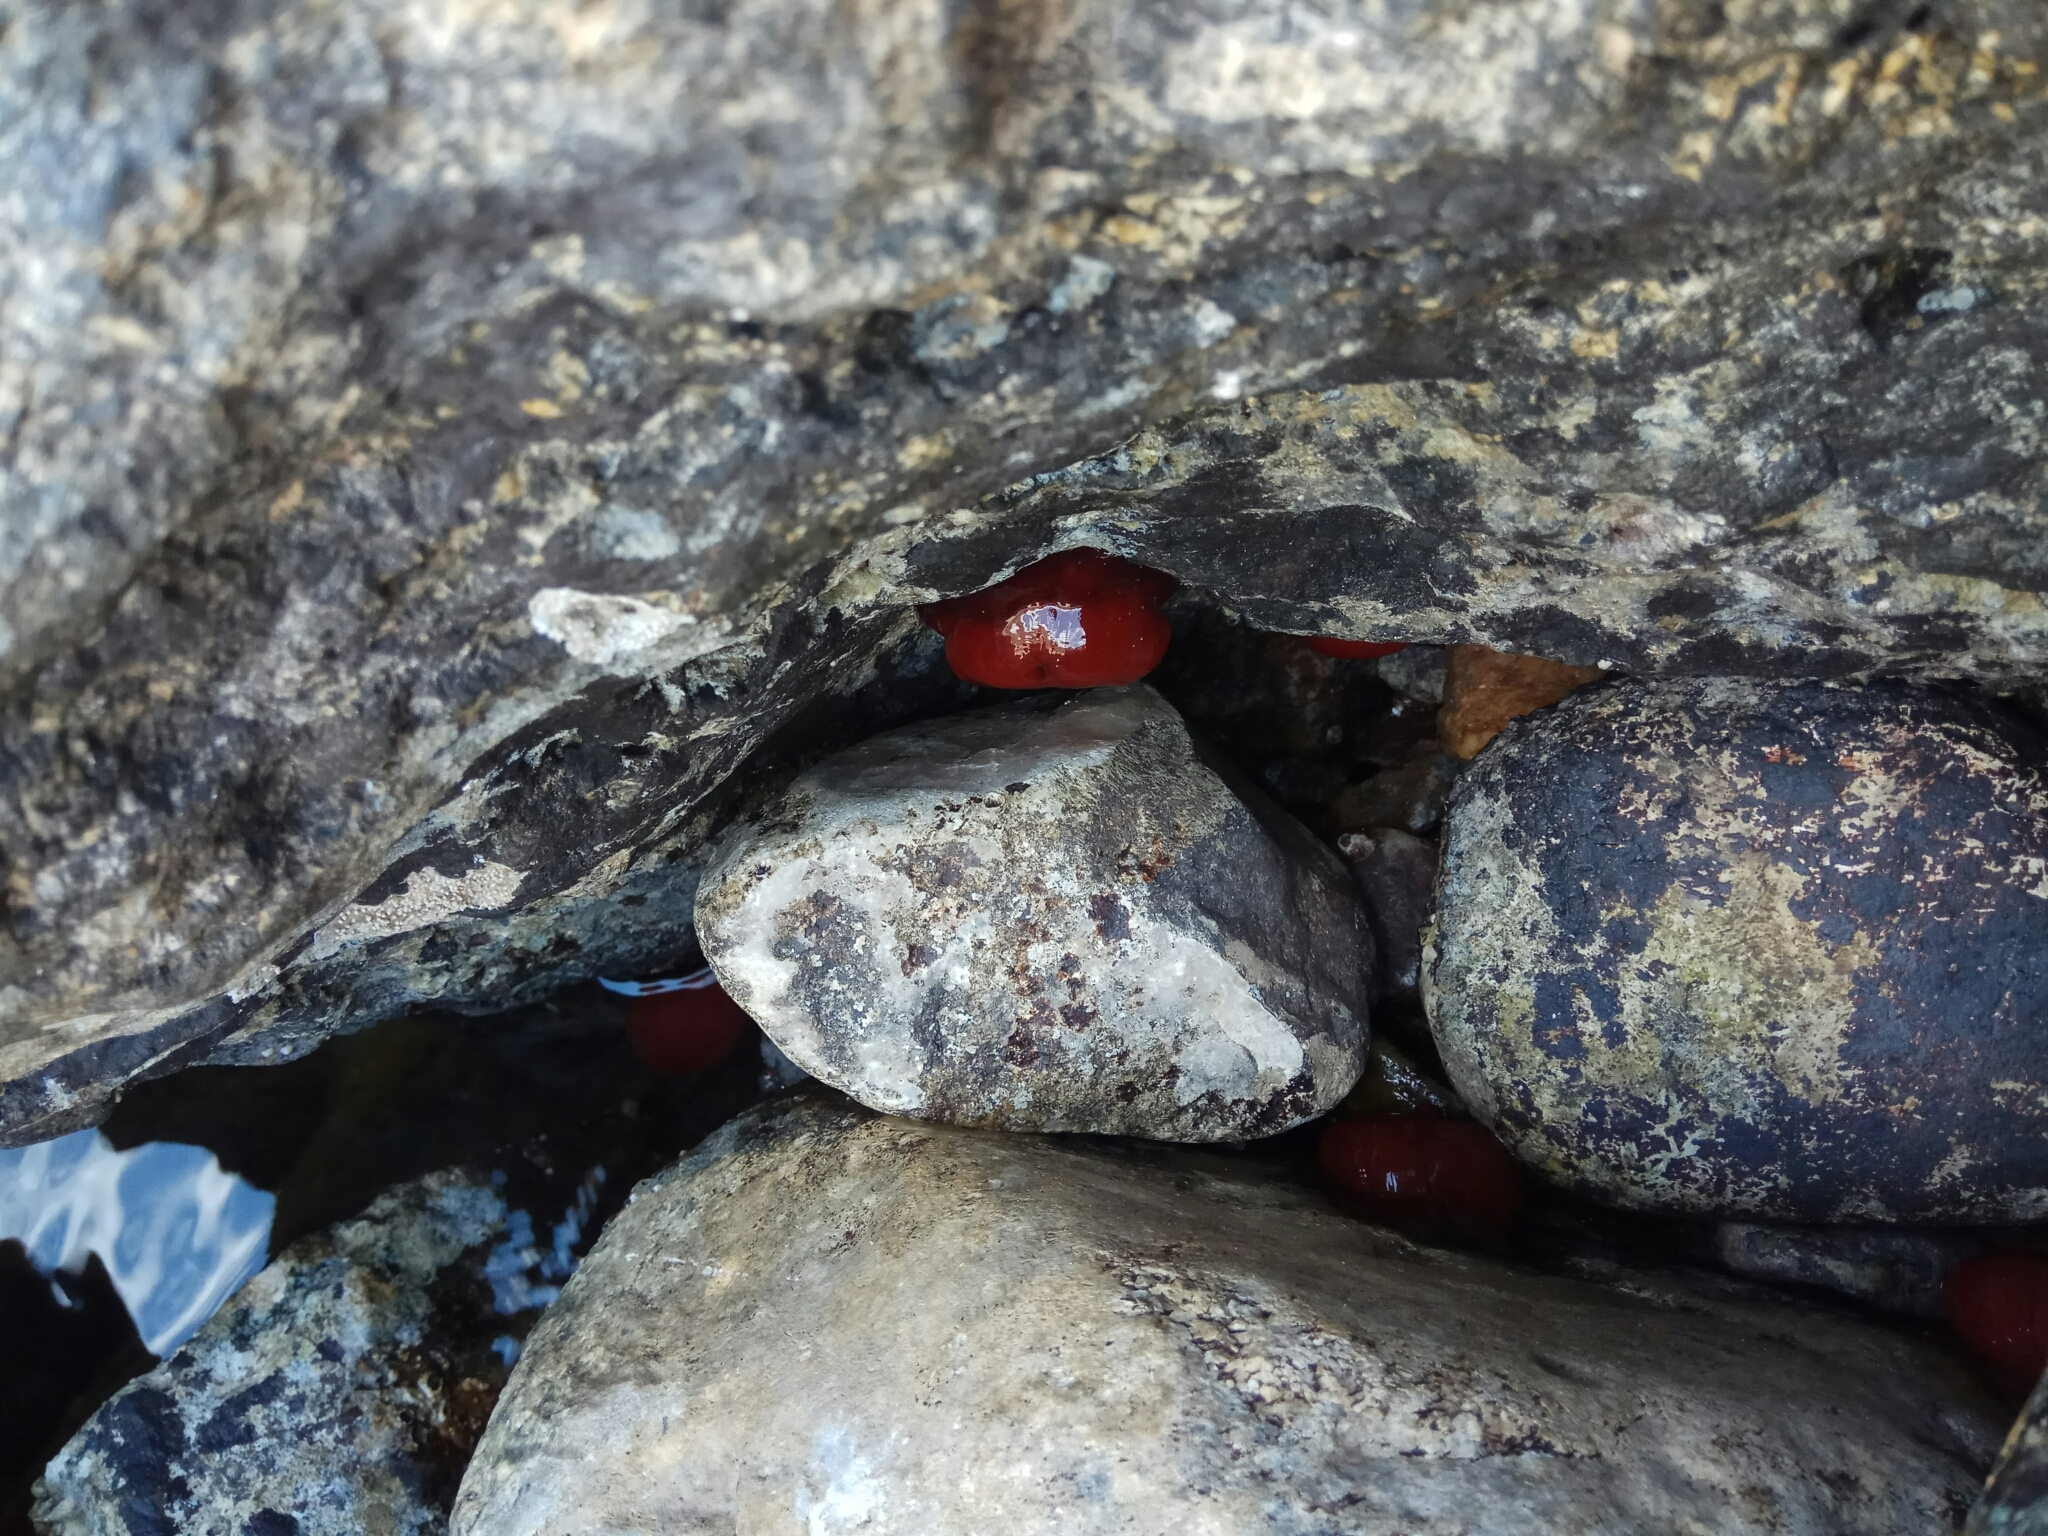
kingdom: Animalia
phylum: Cnidaria
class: Anthozoa
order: Actiniaria
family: Actiniidae
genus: Actinia
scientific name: Actinia mediterranea
